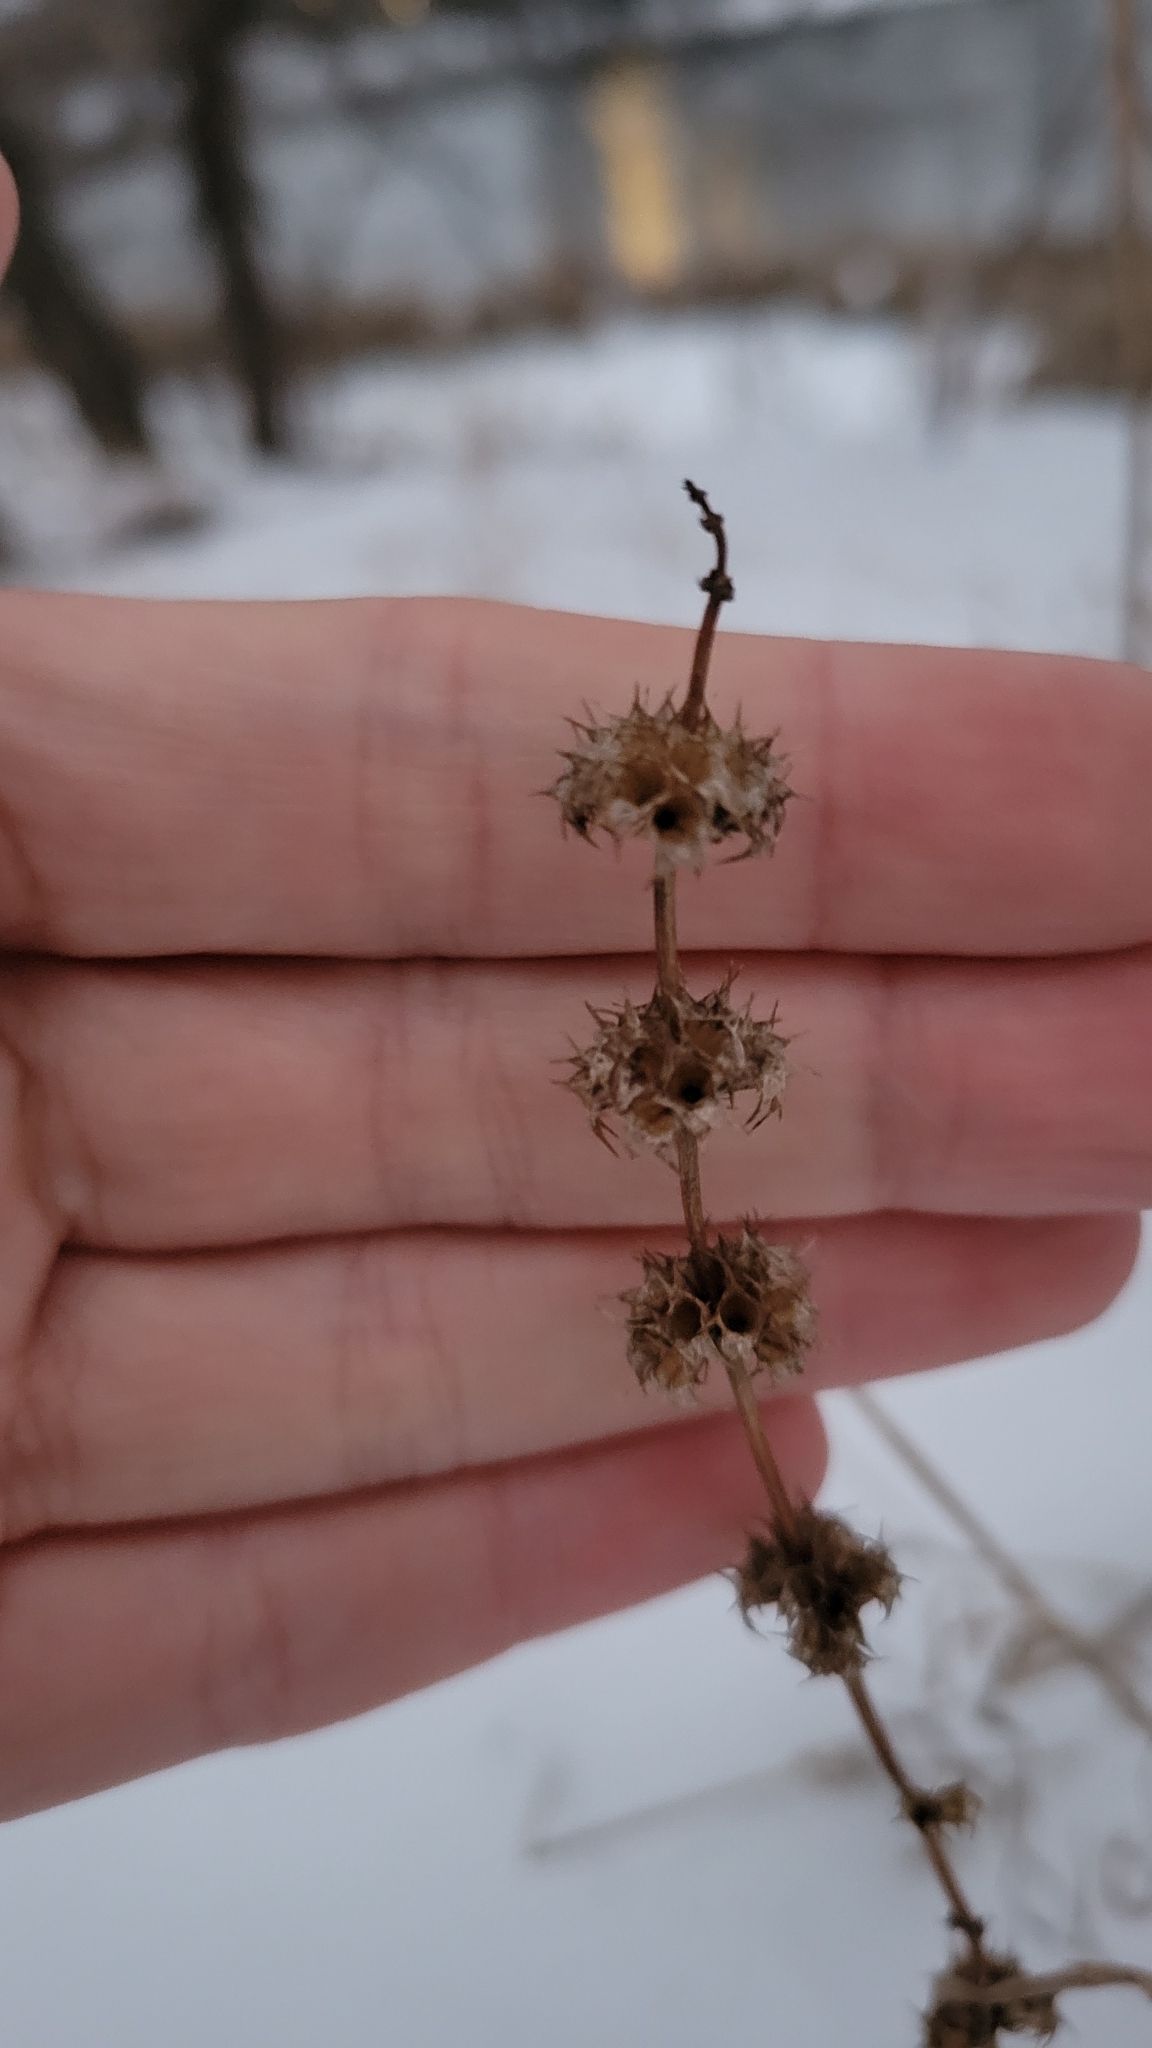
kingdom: Plantae
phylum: Tracheophyta
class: Magnoliopsida
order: Lamiales
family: Lamiaceae
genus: Leonurus
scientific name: Leonurus cardiaca
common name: Motherwort
